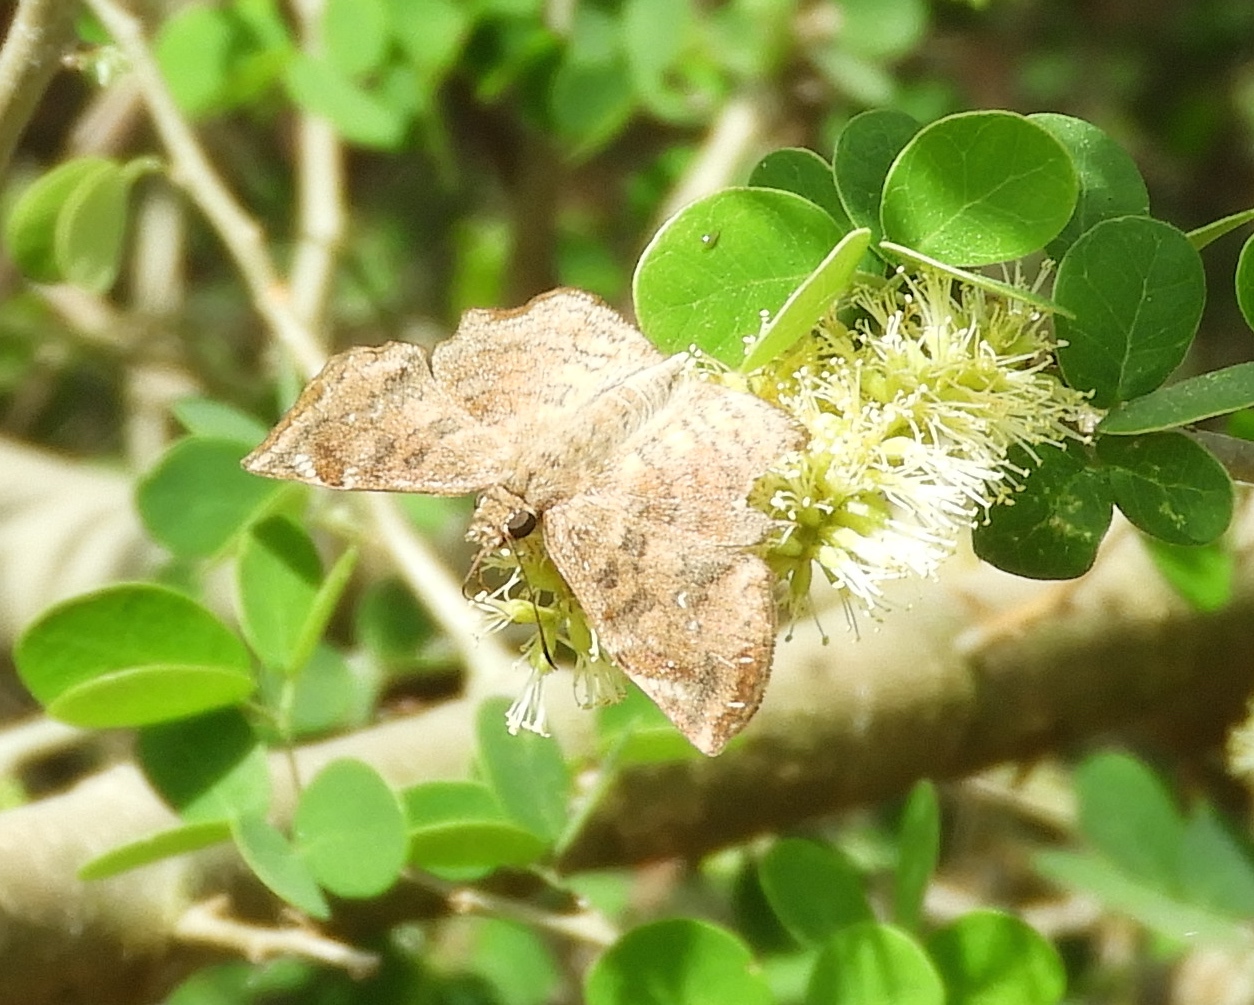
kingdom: Animalia
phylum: Arthropoda
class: Insecta
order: Lepidoptera
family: Hesperiidae
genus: Antigonus
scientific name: Antigonus
